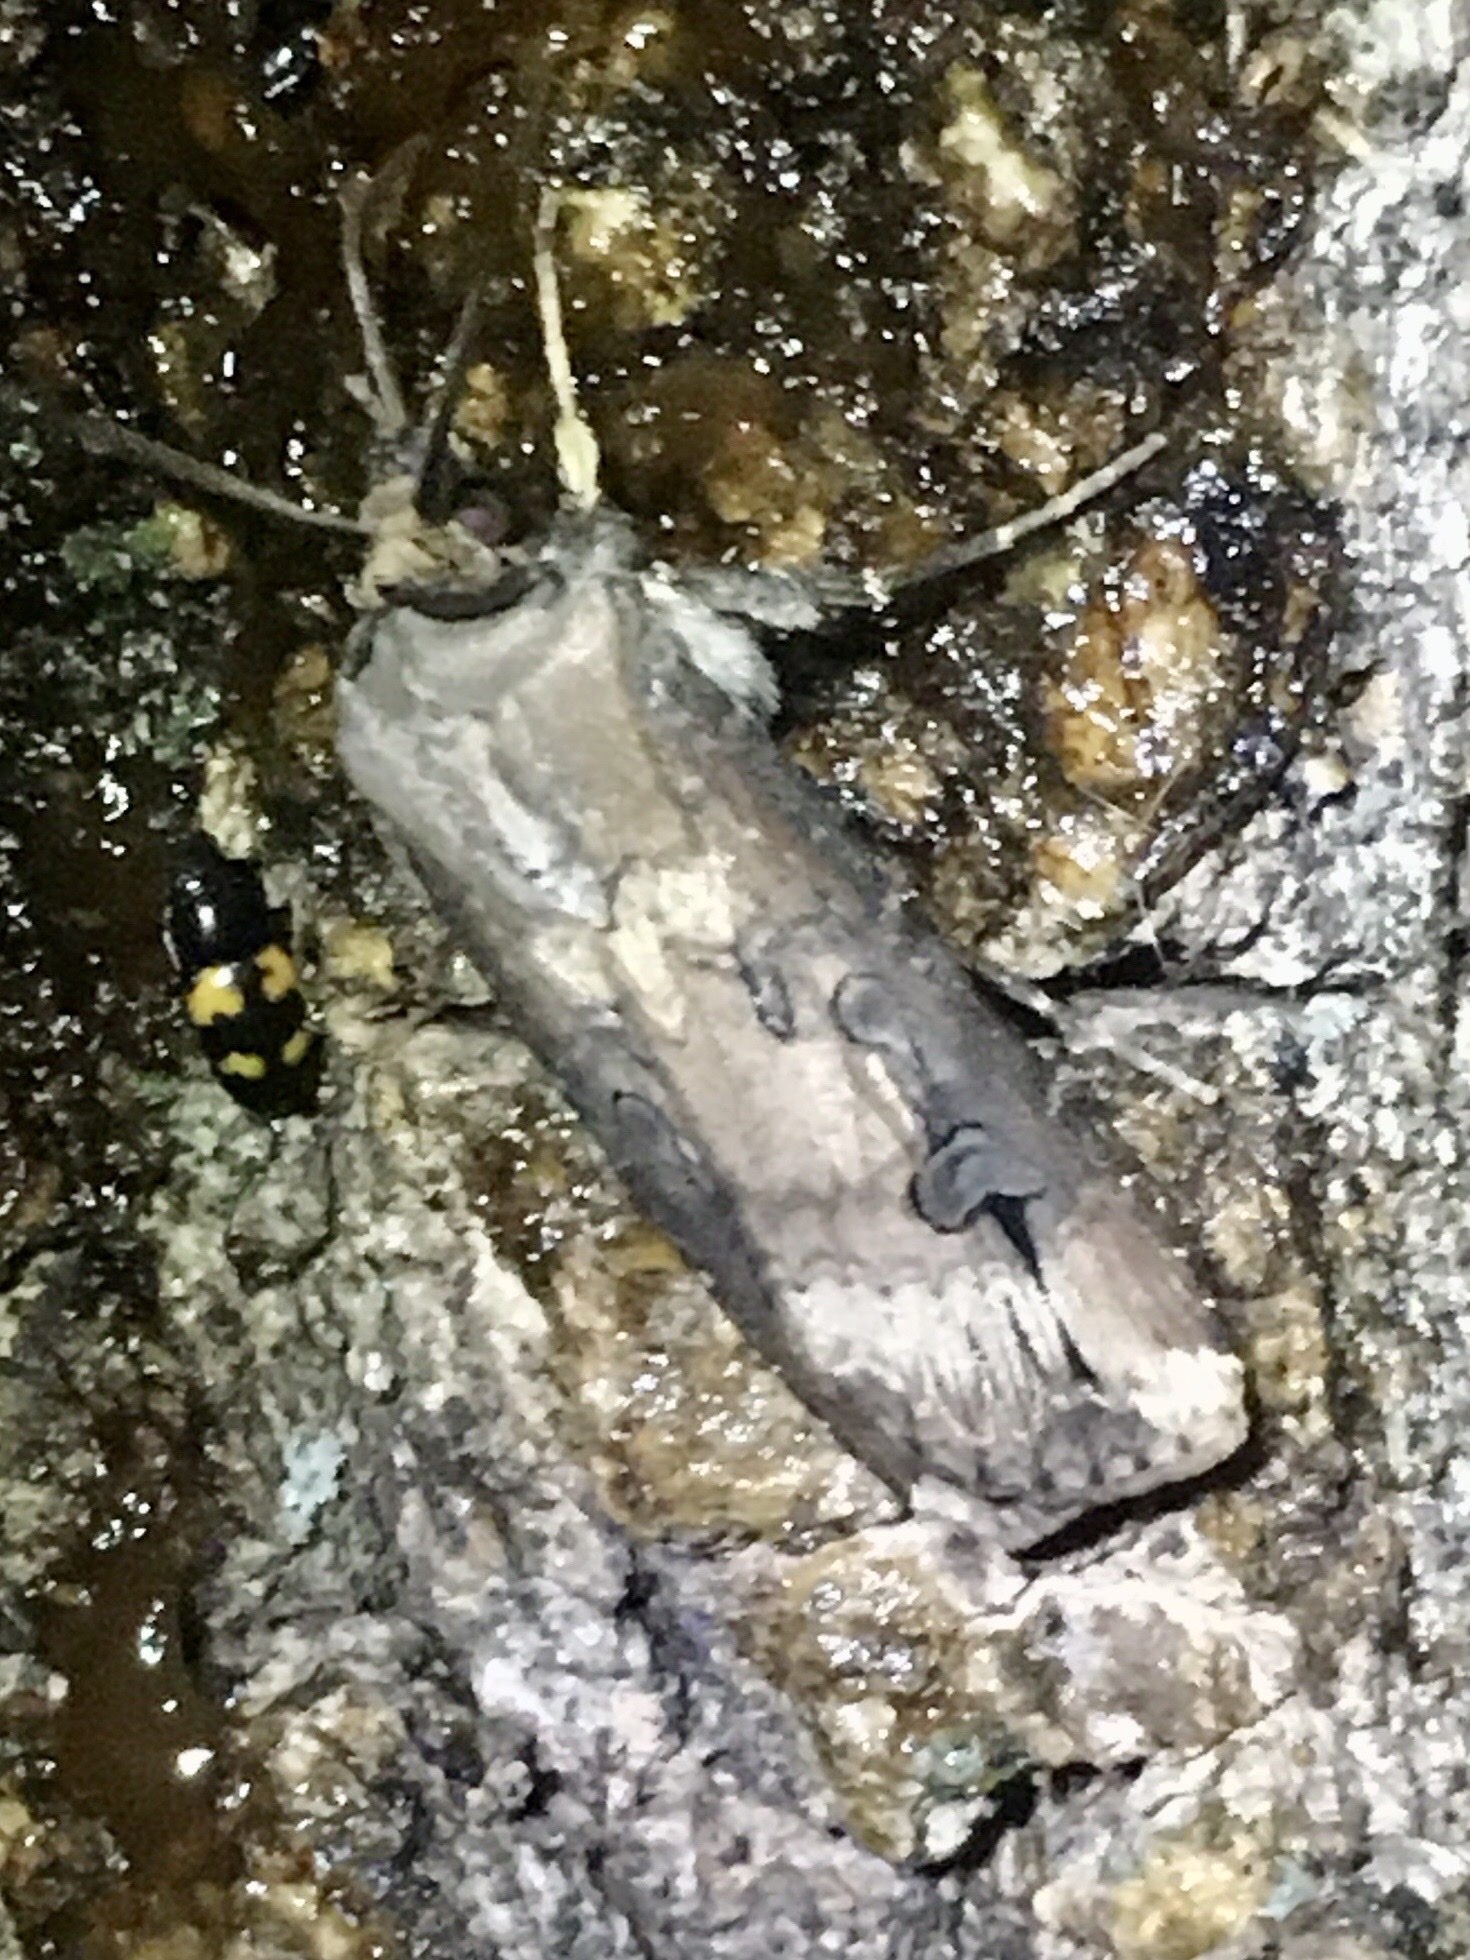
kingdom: Animalia
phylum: Arthropoda
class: Insecta
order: Lepidoptera
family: Noctuidae
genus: Agrotis
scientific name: Agrotis ipsilon
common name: Dark sword-grass
